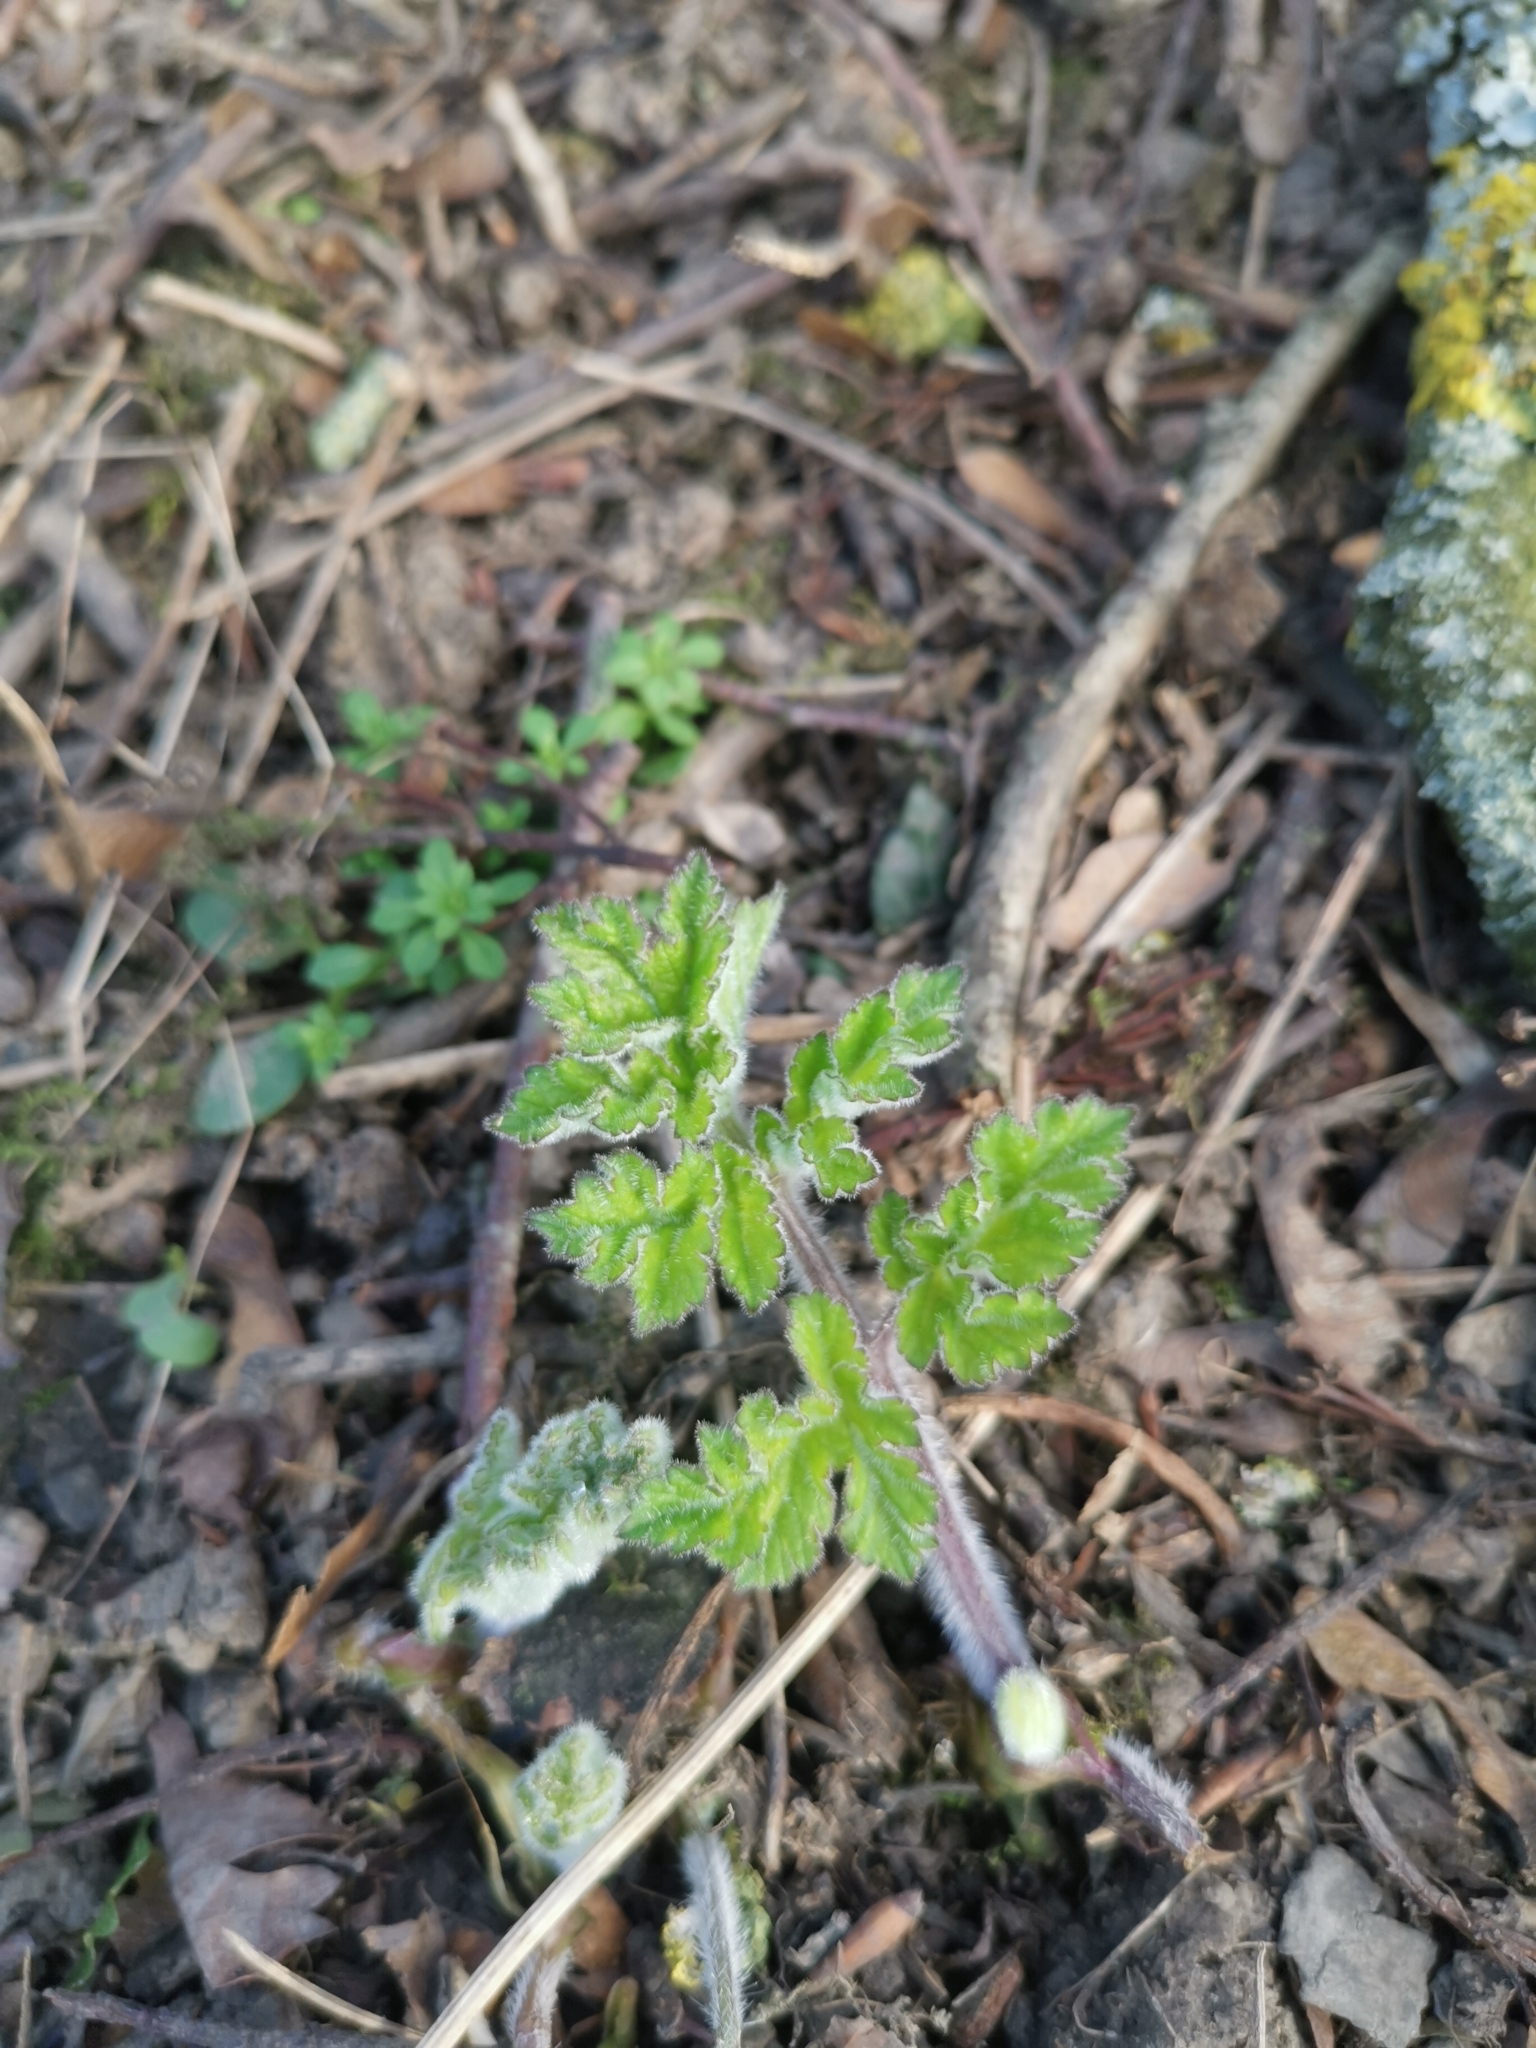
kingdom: Plantae
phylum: Tracheophyta
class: Magnoliopsida
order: Apiales
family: Apiaceae
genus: Heracleum
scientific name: Heracleum sphondylium
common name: Hogweed
